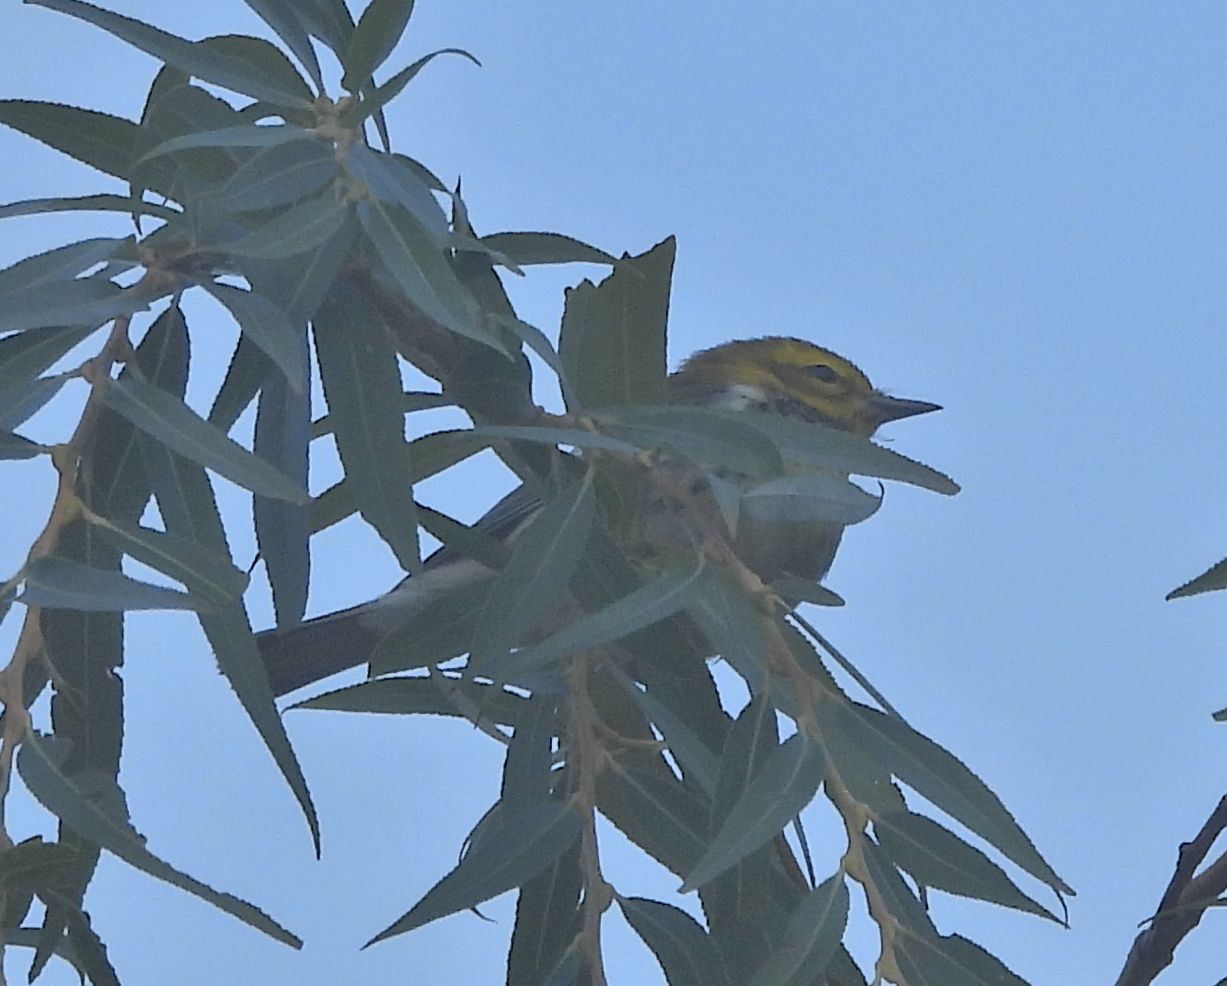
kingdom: Animalia
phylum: Chordata
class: Aves
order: Passeriformes
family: Parulidae
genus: Setophaga
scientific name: Setophaga virens
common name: Black-throated green warbler
